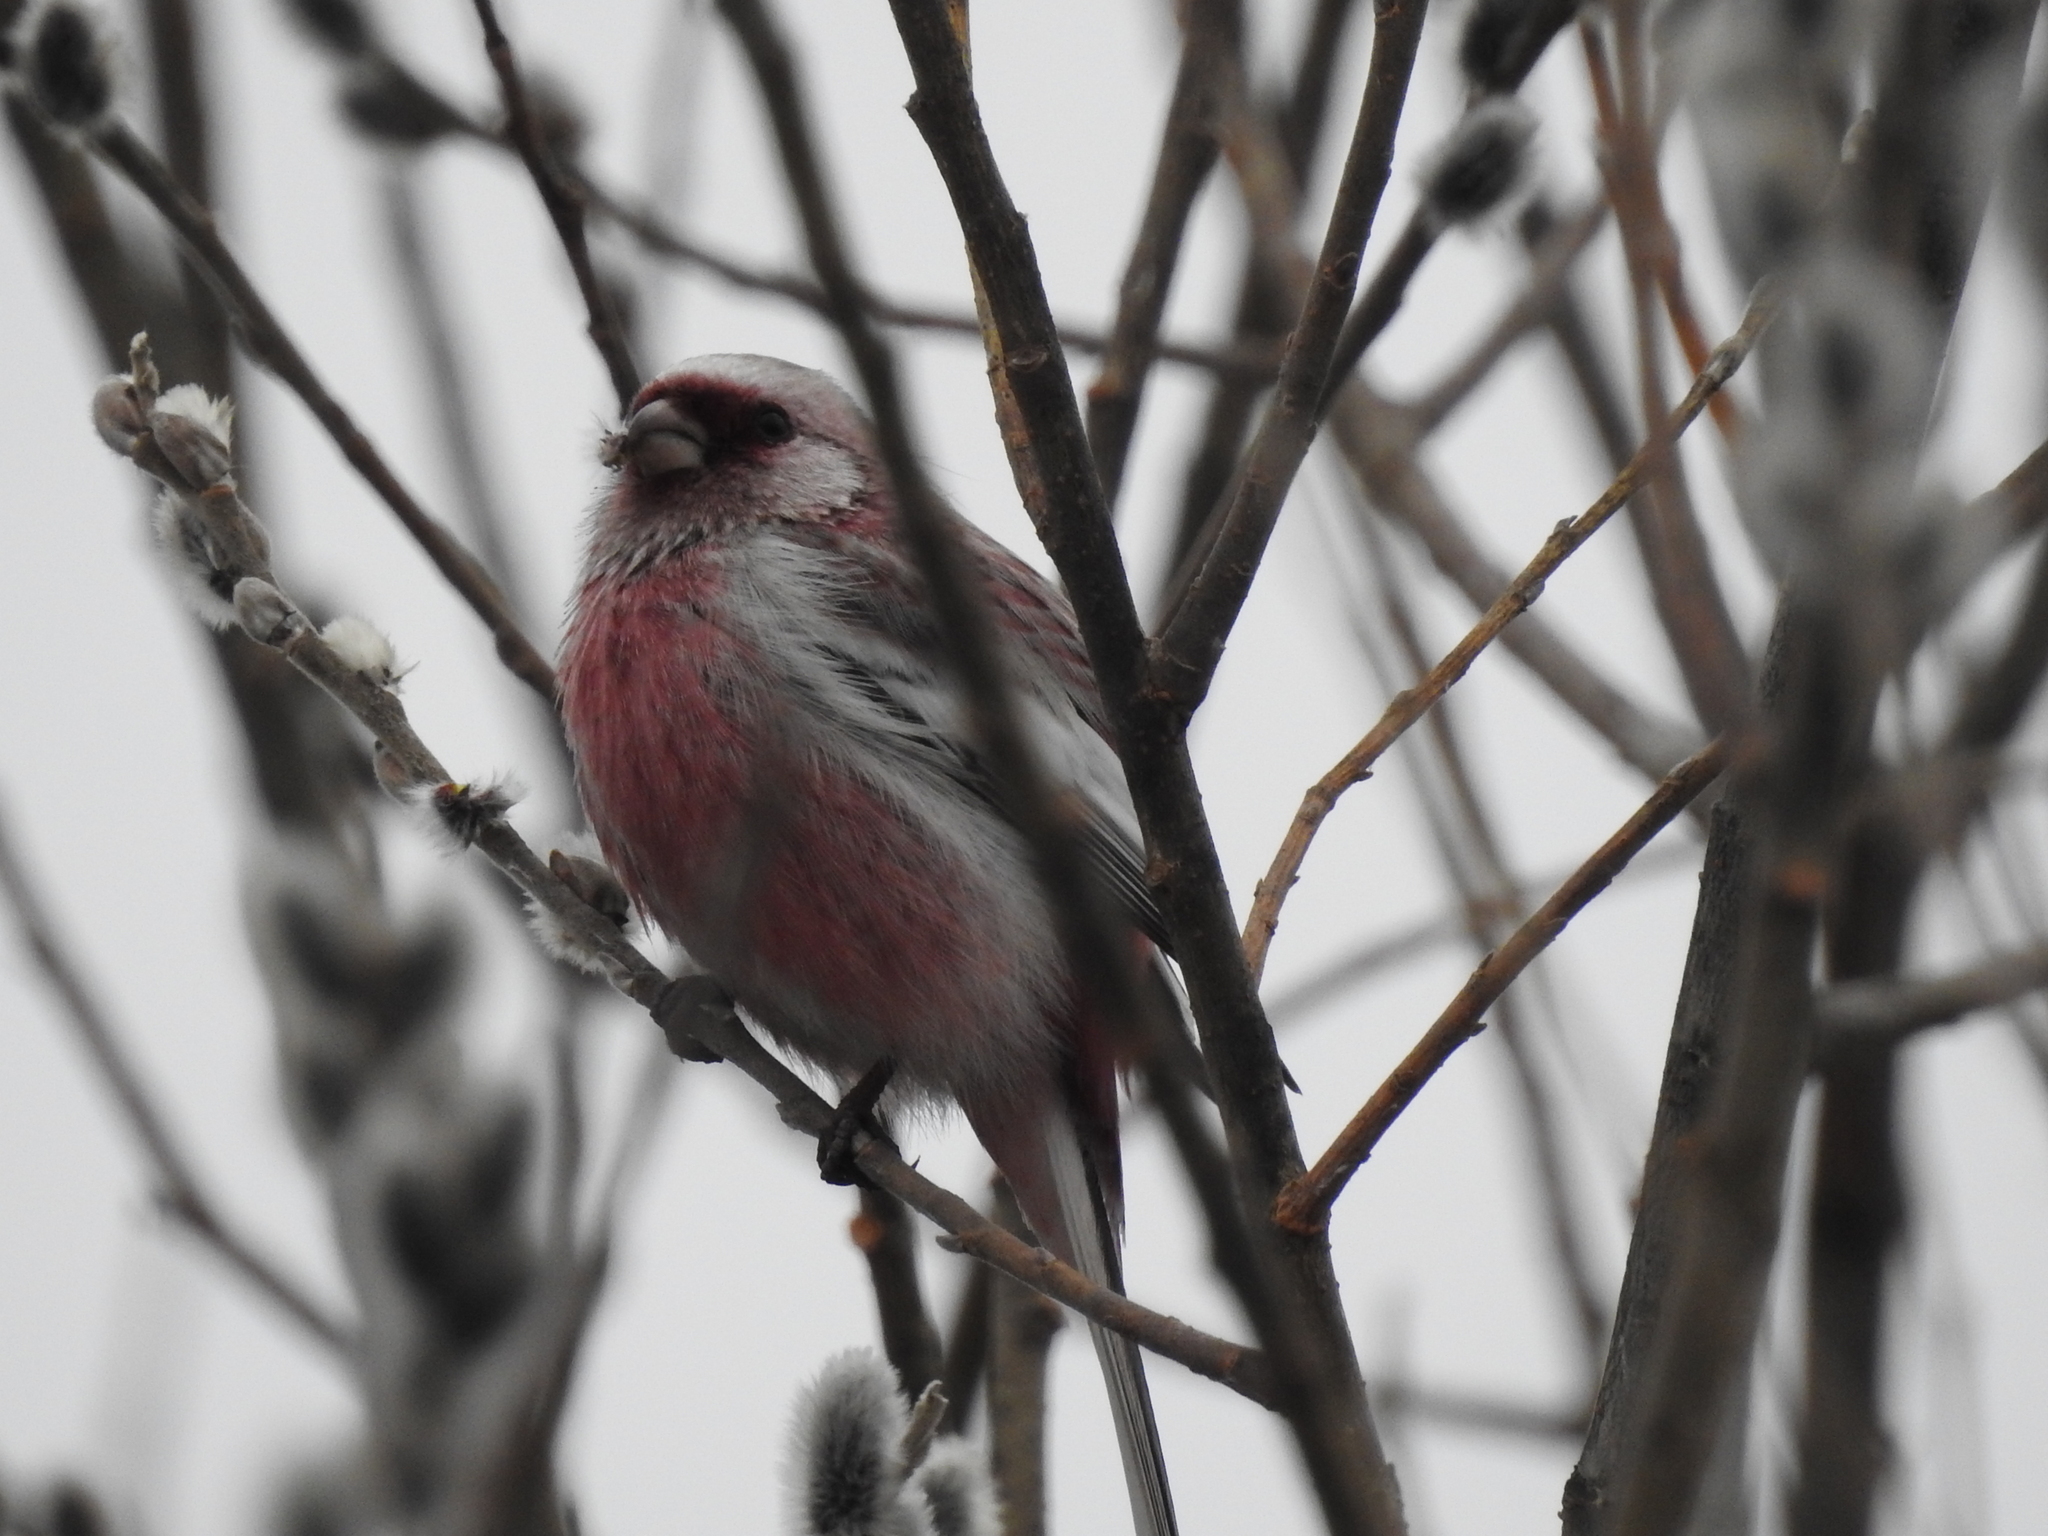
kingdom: Animalia
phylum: Chordata
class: Aves
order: Passeriformes
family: Fringillidae
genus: Carpodacus
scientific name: Carpodacus sibiricus
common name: Long-tailed rosefinch
